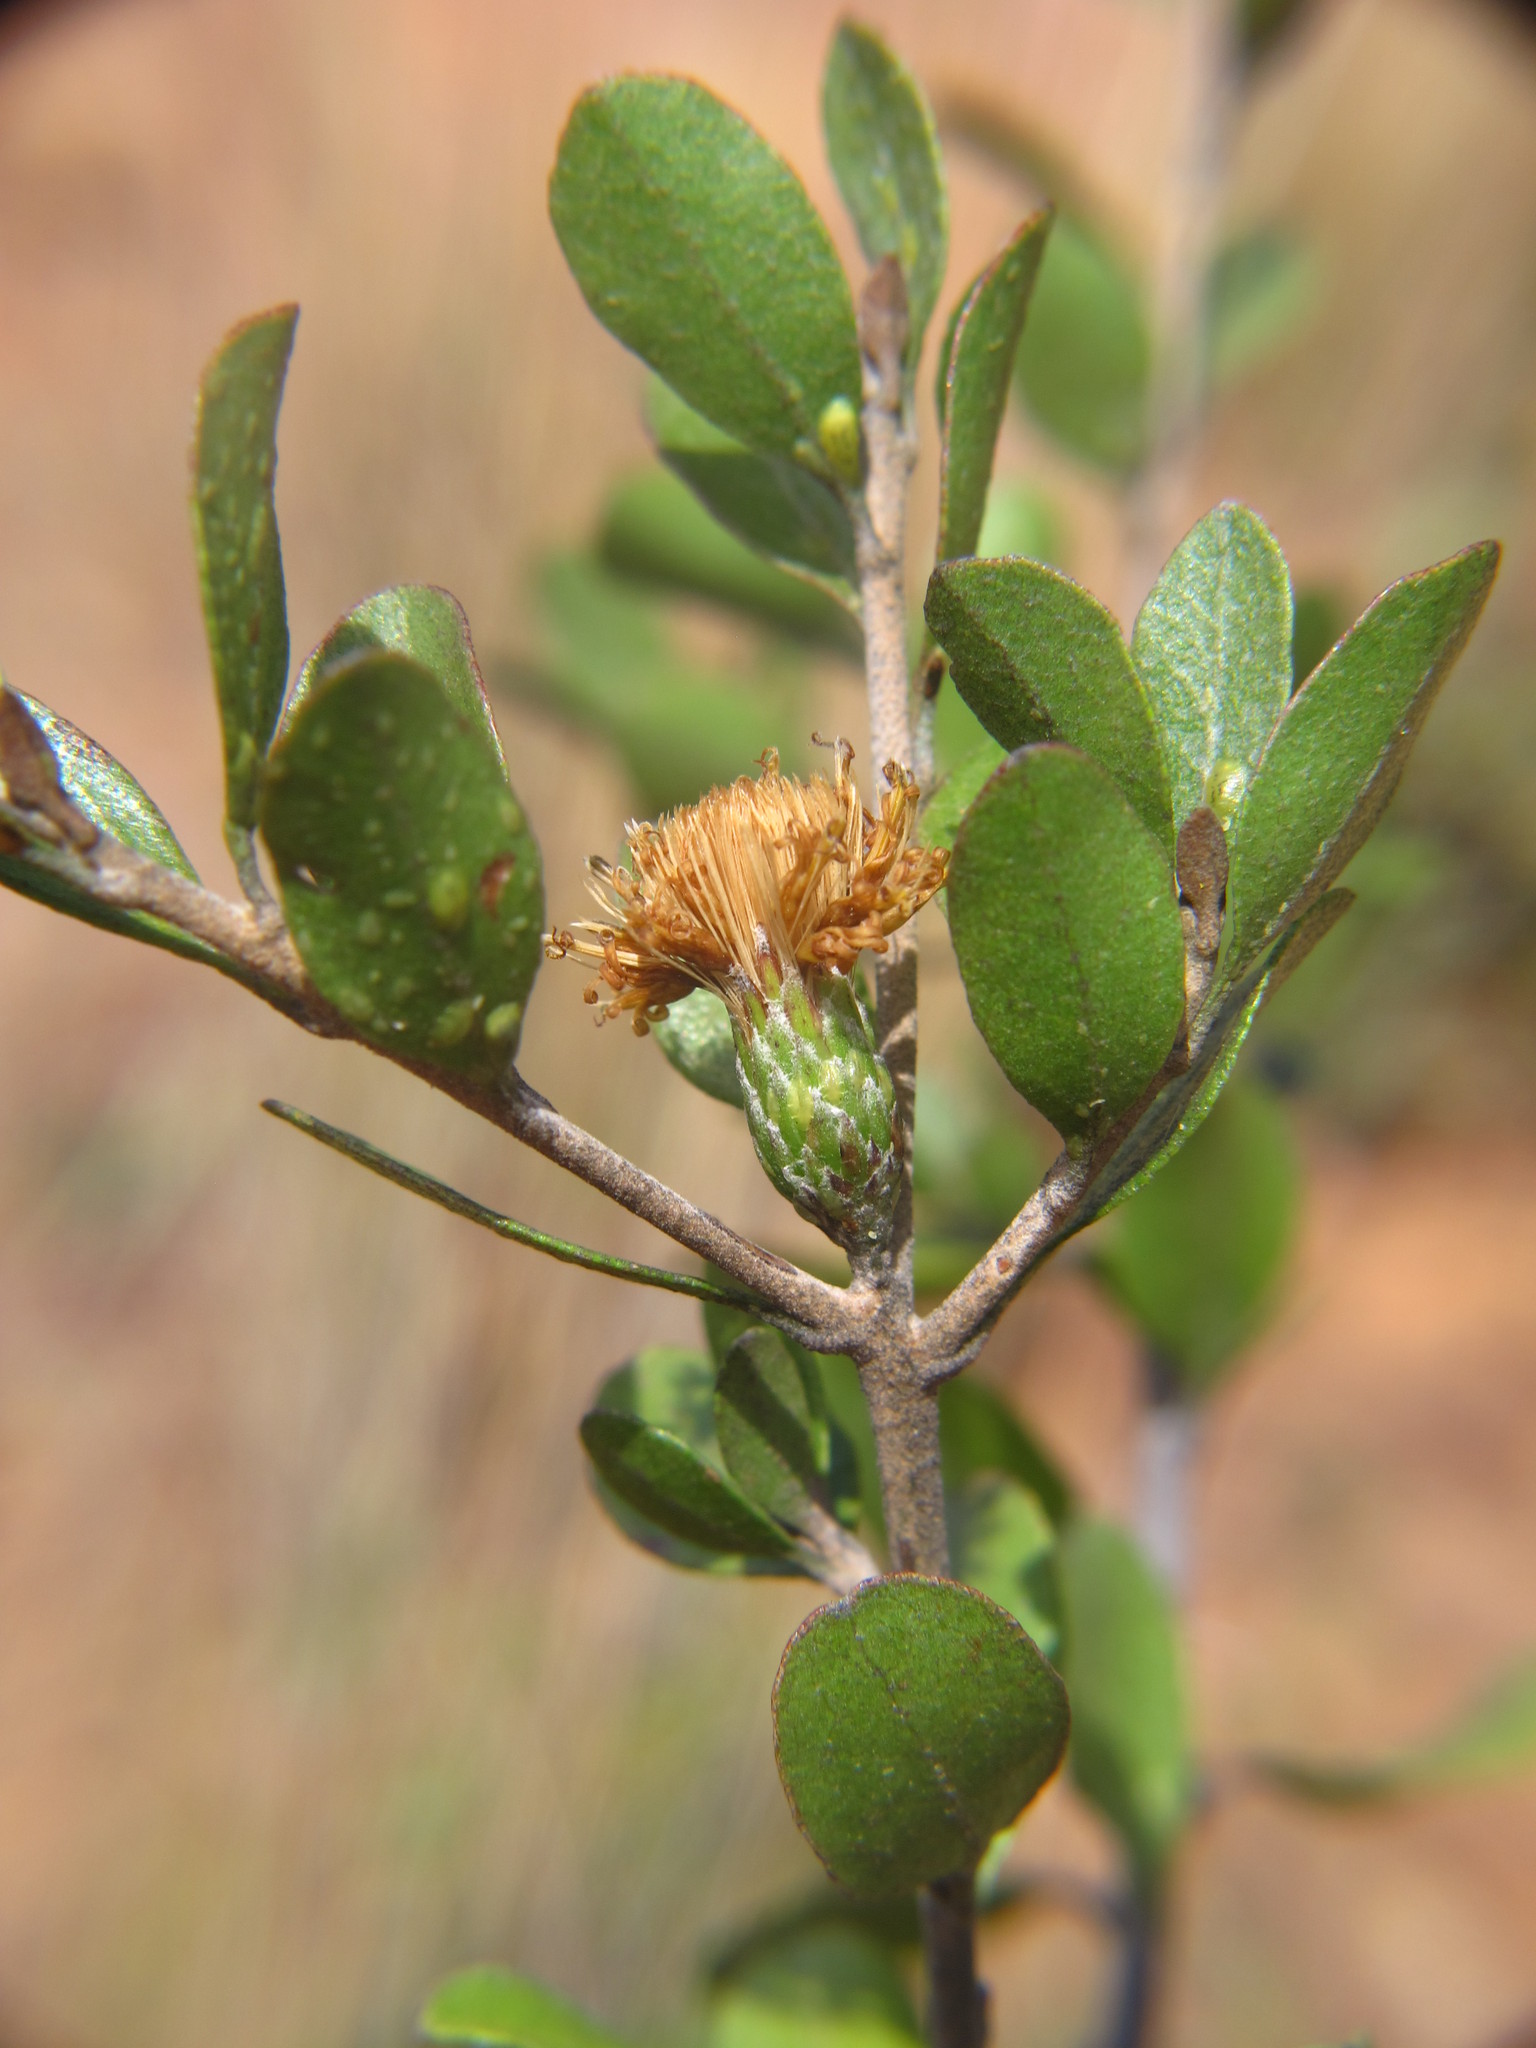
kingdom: Plantae
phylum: Tracheophyta
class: Magnoliopsida
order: Asterales
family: Asteraceae
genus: Distephanus
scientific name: Distephanus polygalifolius
